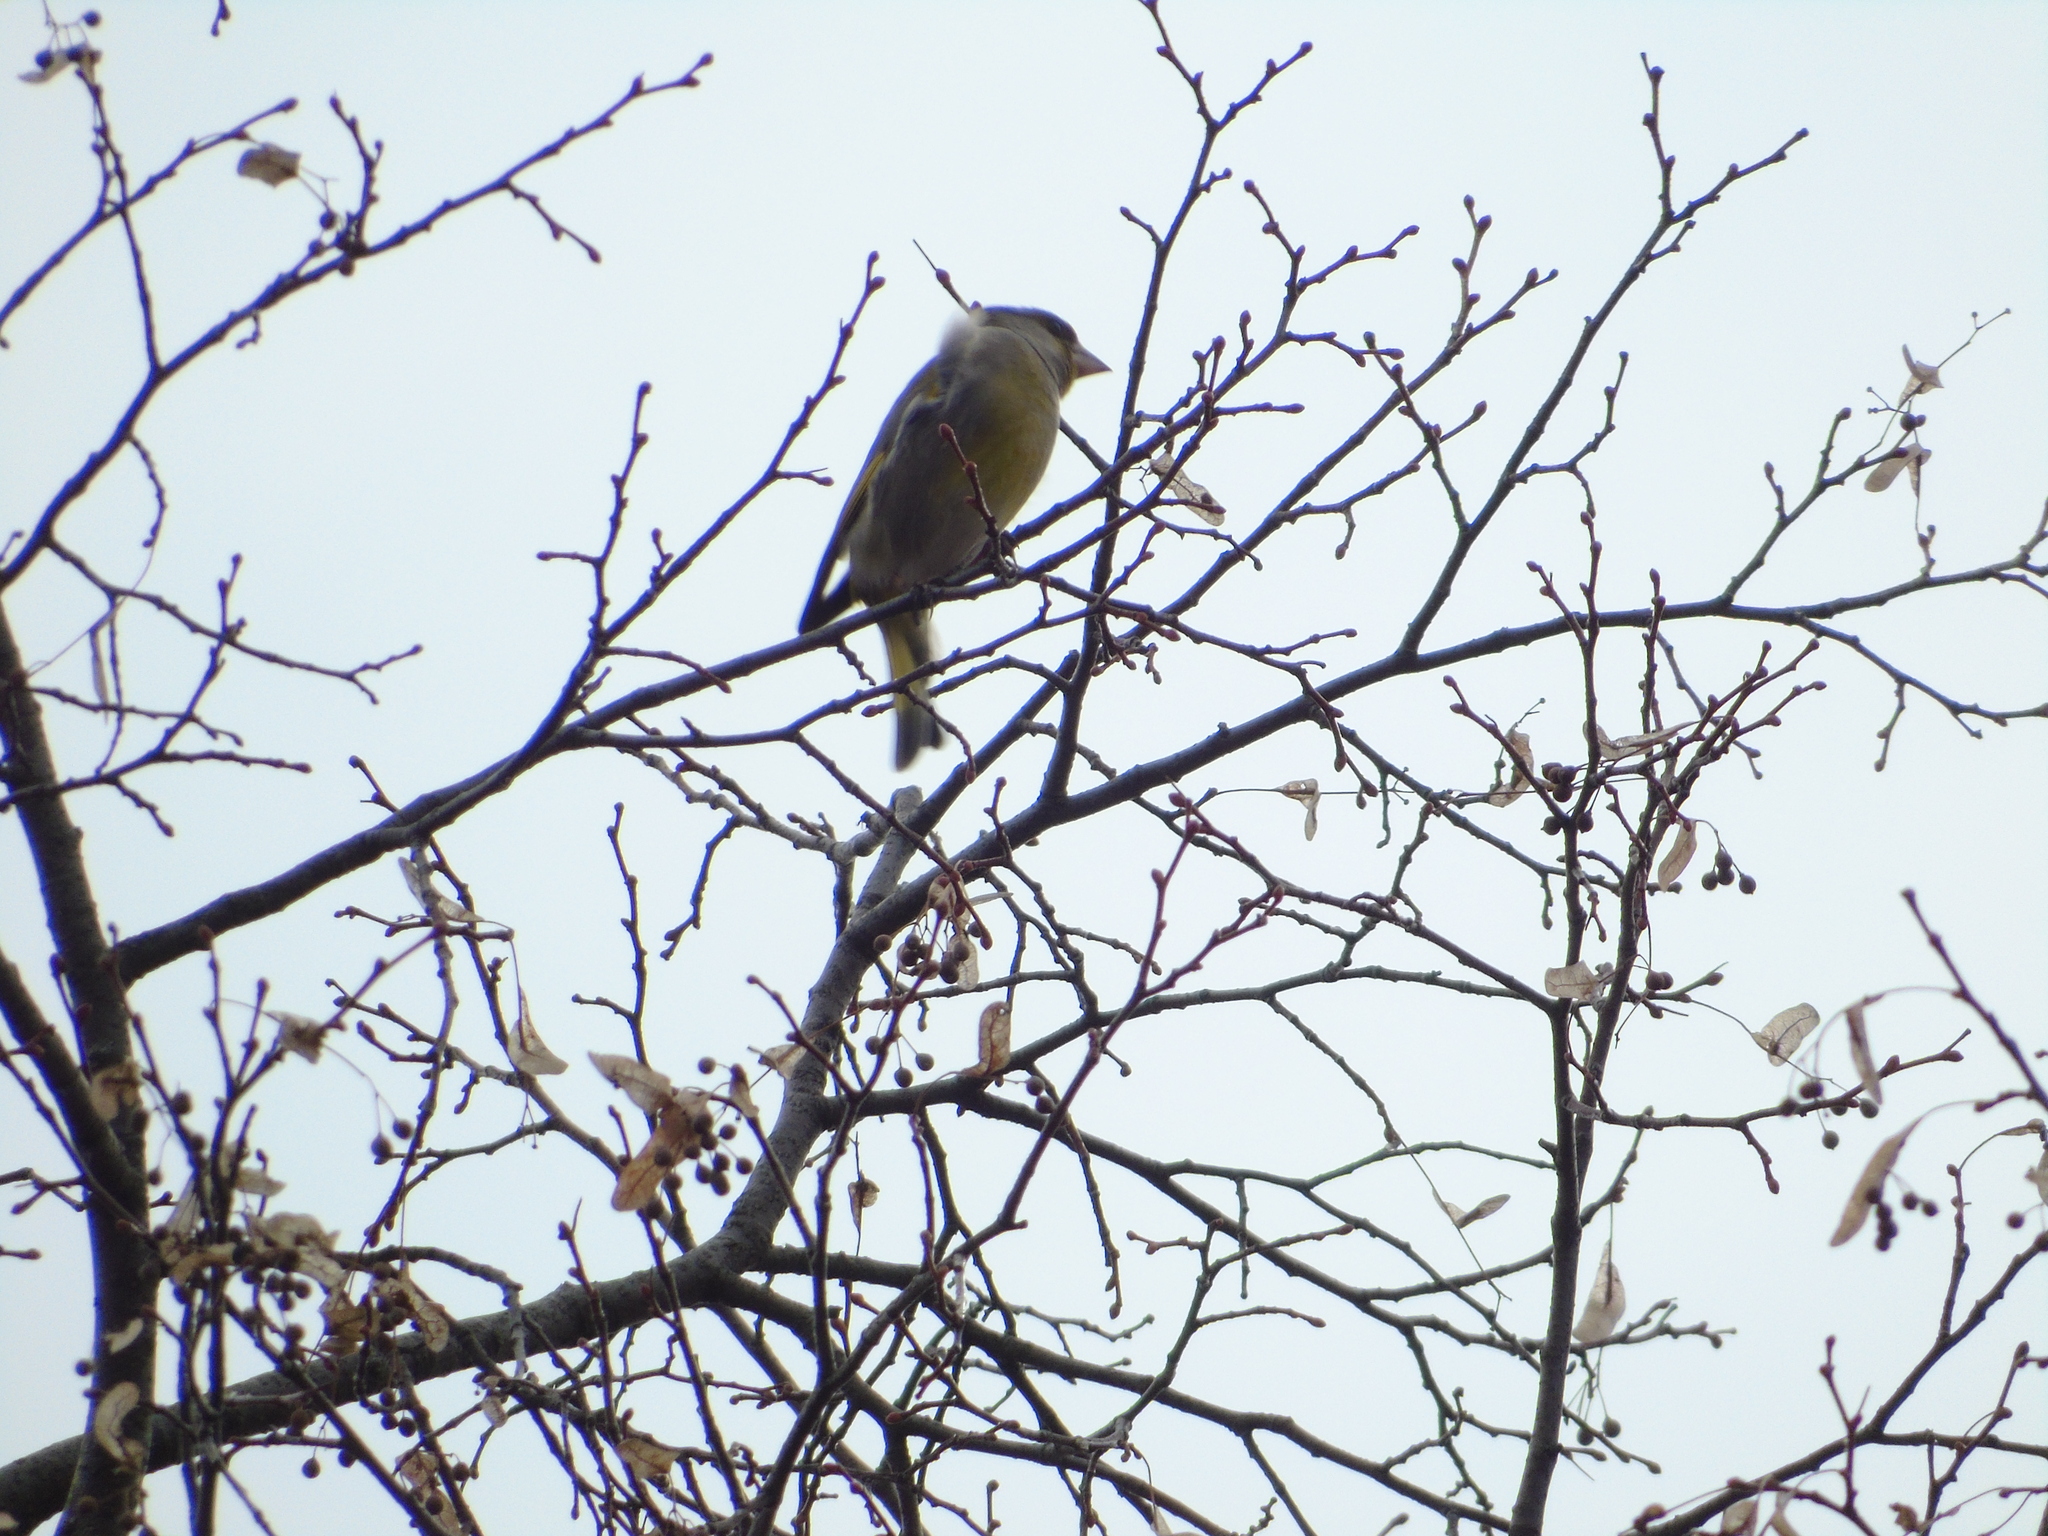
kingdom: Plantae
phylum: Tracheophyta
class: Liliopsida
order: Poales
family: Poaceae
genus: Chloris
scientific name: Chloris chloris
